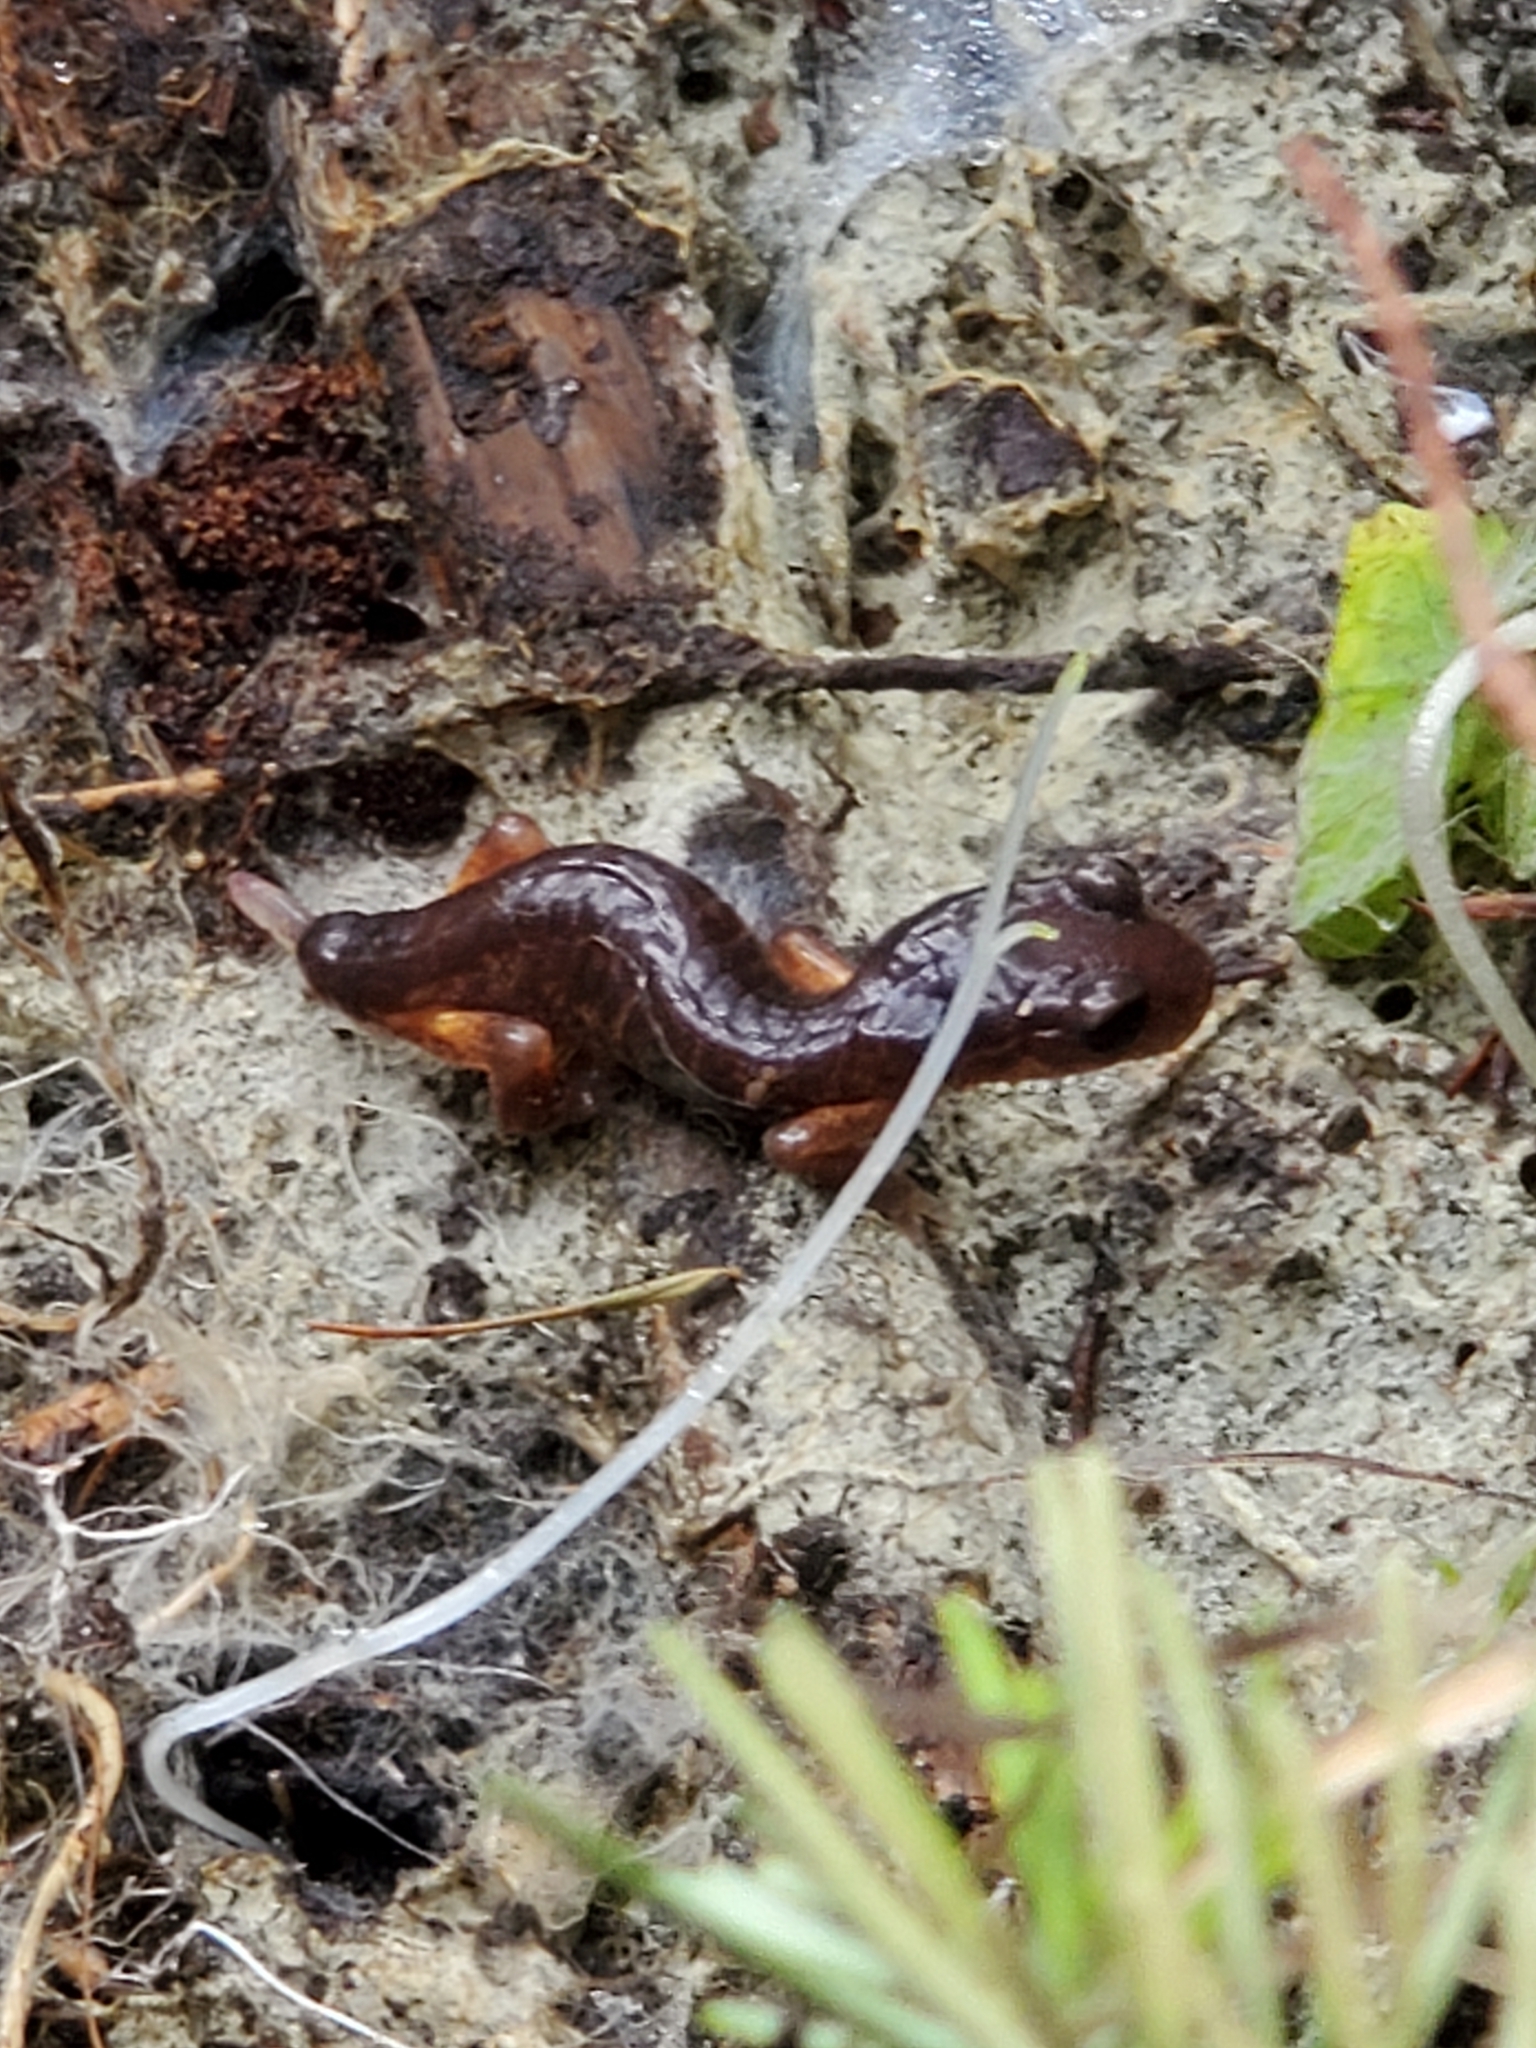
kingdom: Animalia
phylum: Chordata
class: Amphibia
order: Caudata
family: Plethodontidae
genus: Ensatina
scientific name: Ensatina eschscholtzii
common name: Ensatina
